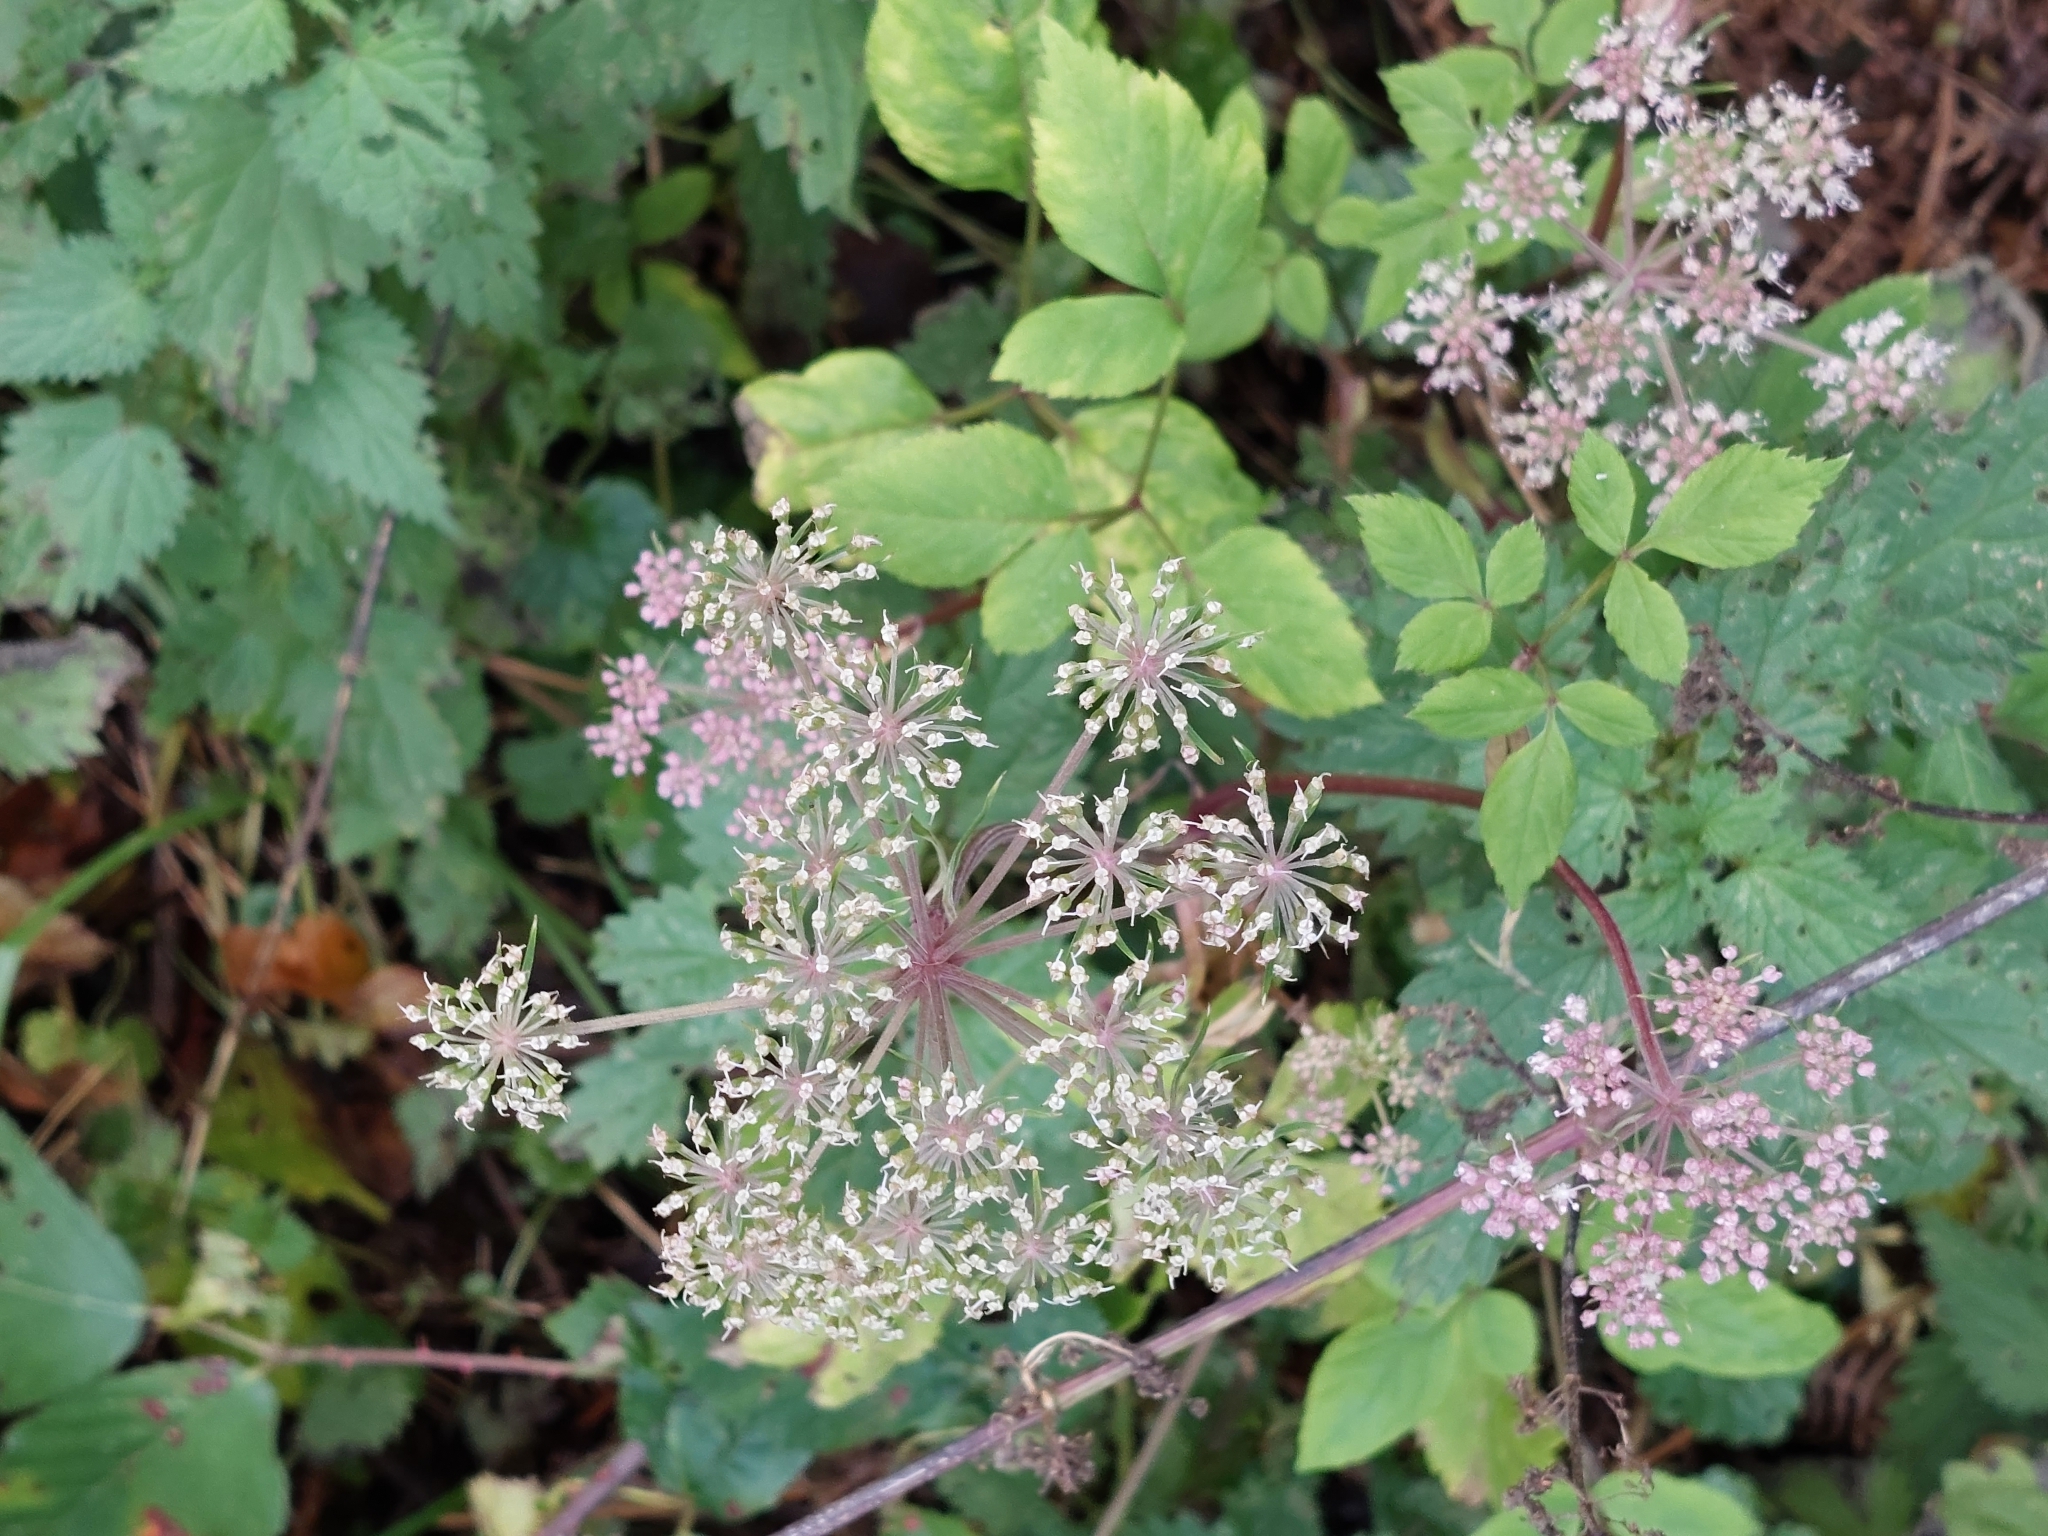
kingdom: Plantae
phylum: Tracheophyta
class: Magnoliopsida
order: Apiales
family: Apiaceae
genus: Angelica
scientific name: Angelica sylvestris
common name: Wild angelica
